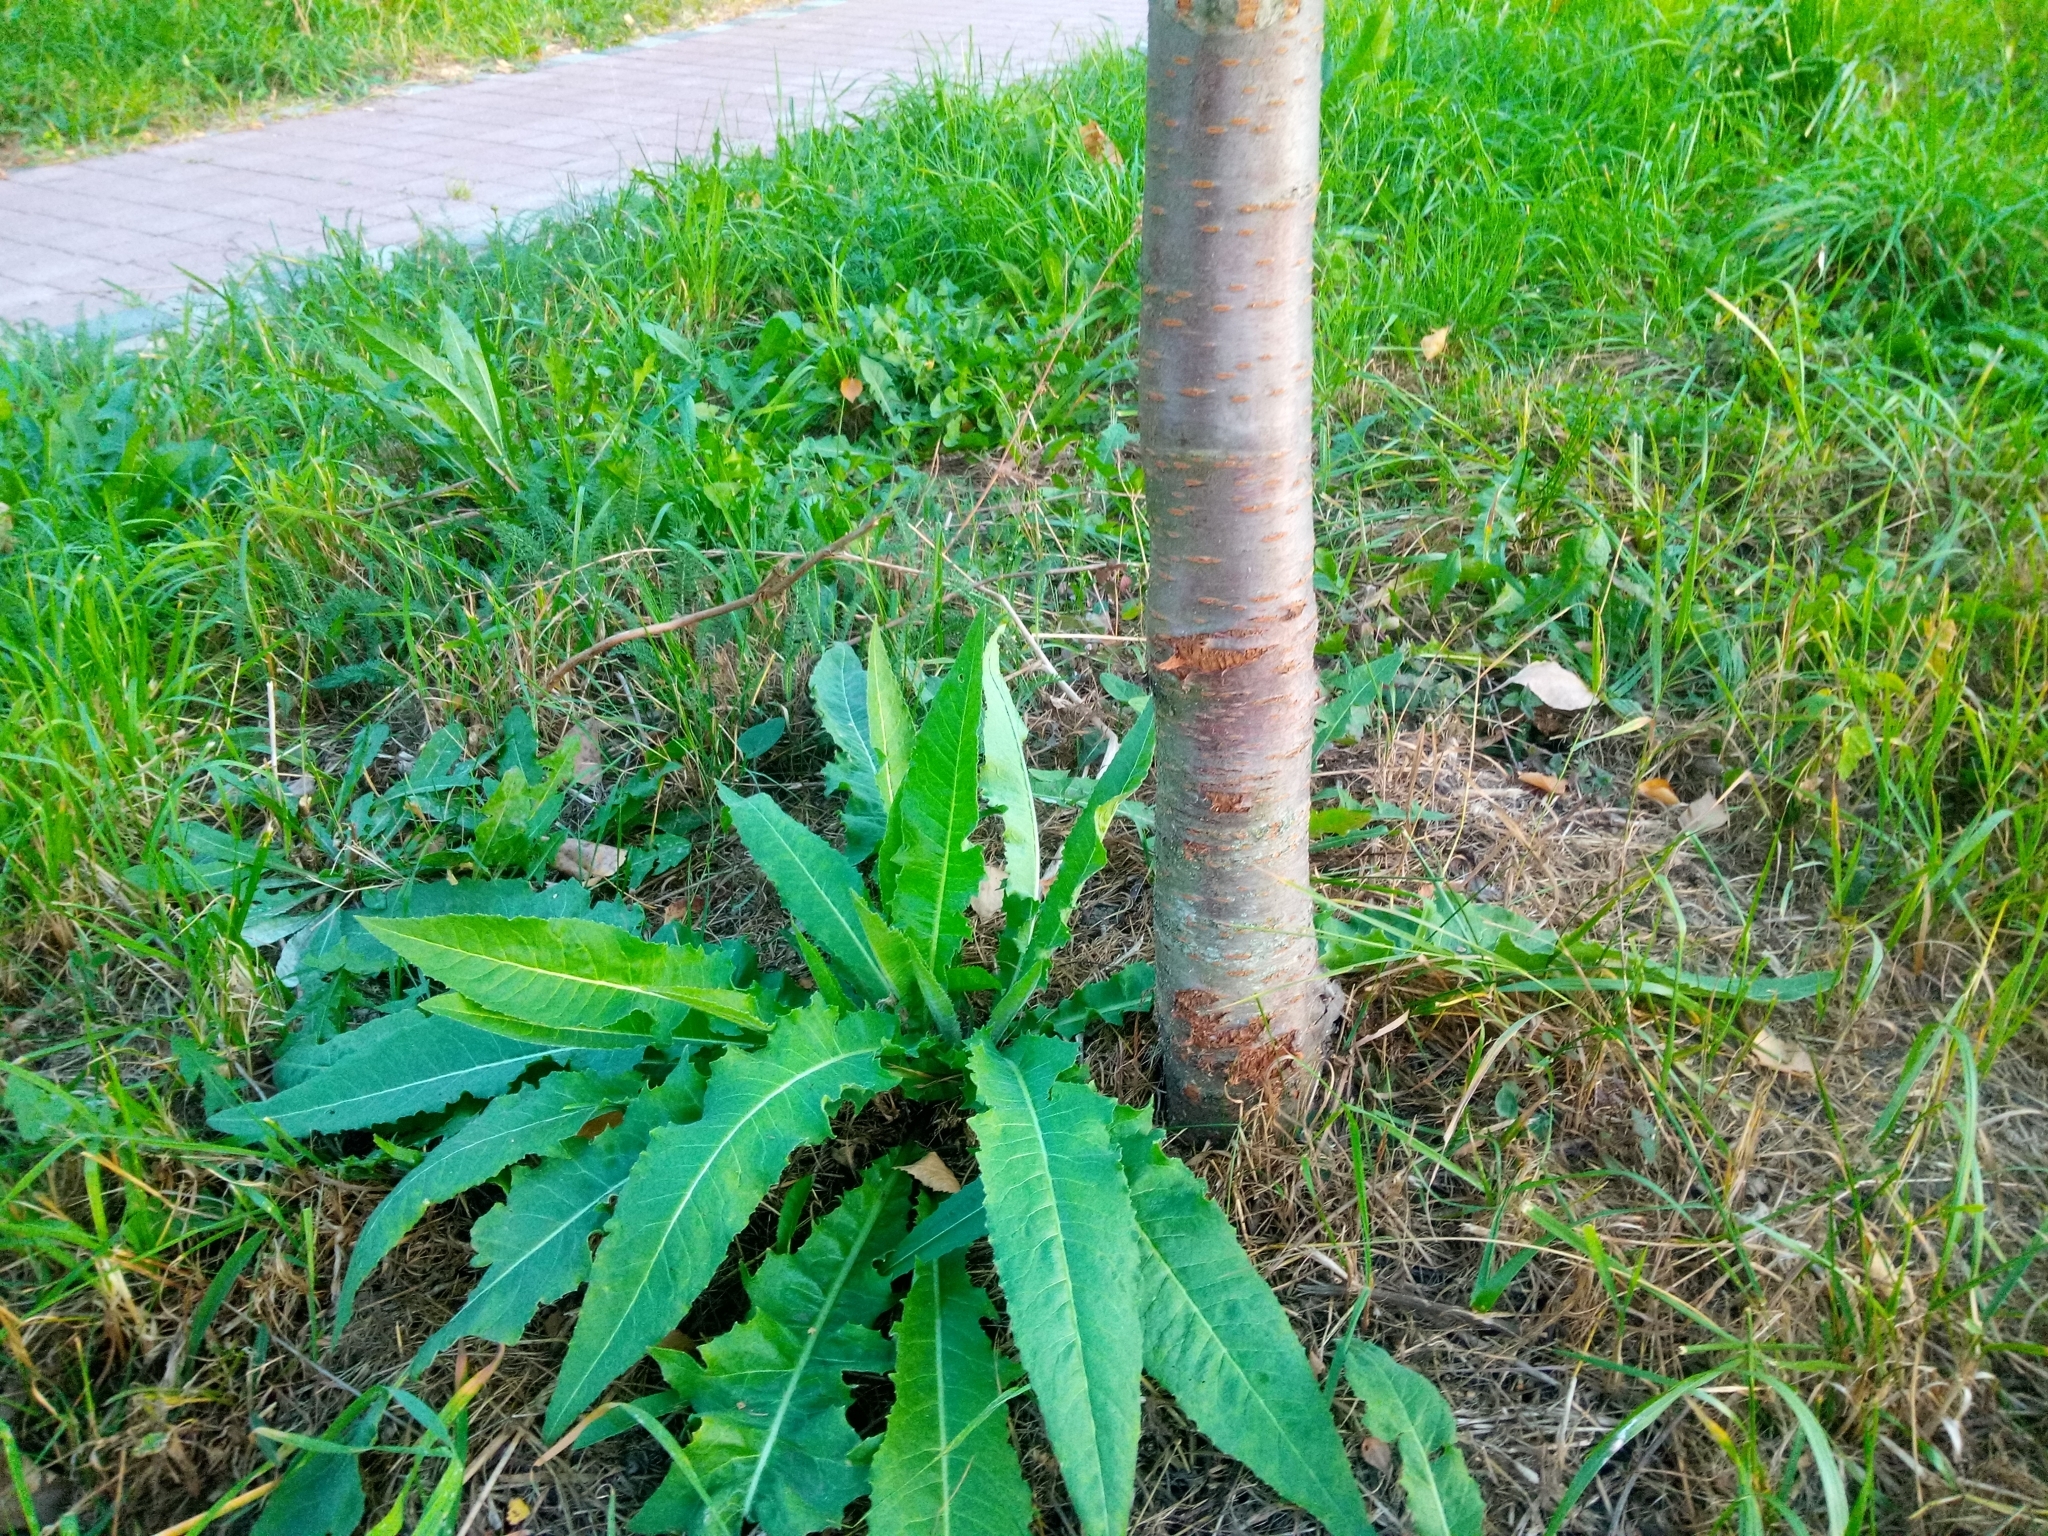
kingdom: Plantae
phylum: Tracheophyta
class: Magnoliopsida
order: Brassicales
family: Brassicaceae
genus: Bunias
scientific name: Bunias orientalis
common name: Warty-cabbage
